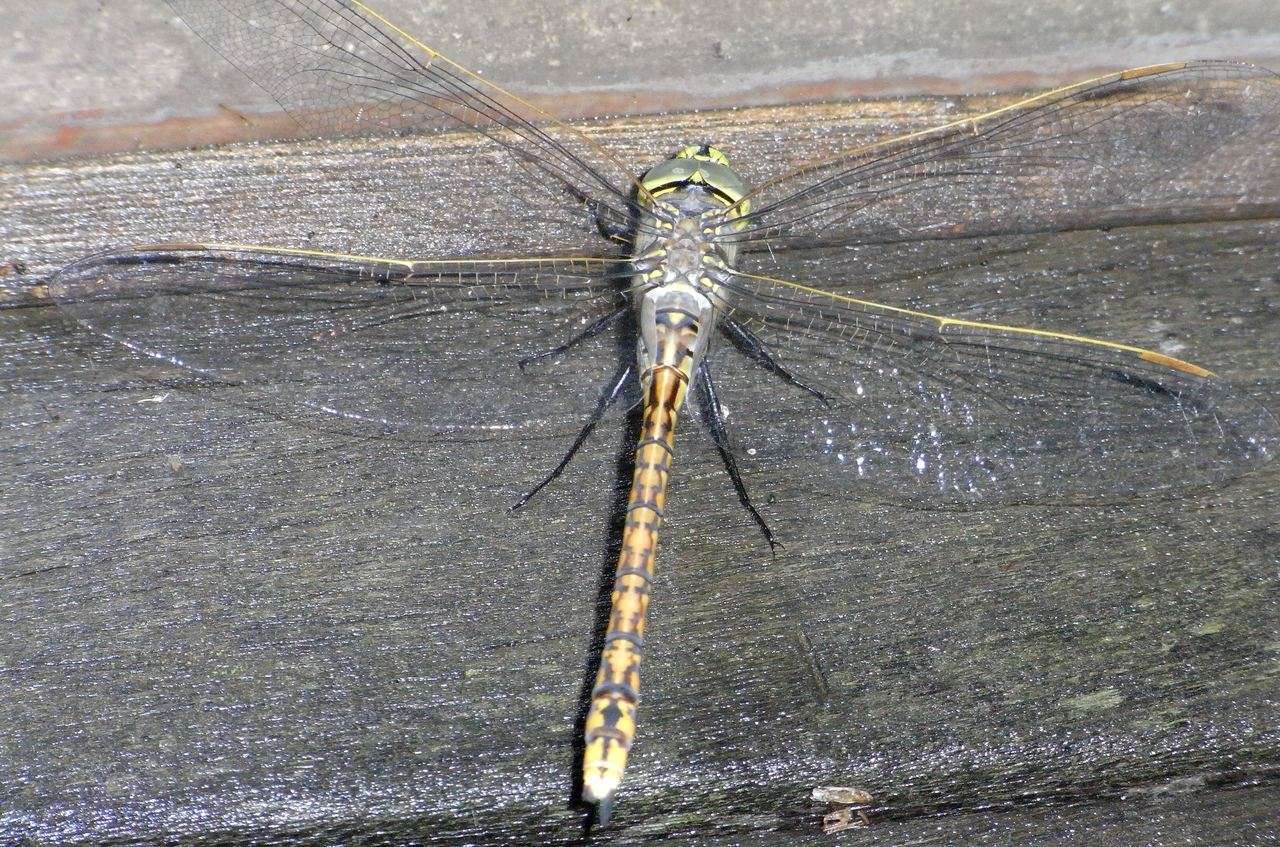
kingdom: Animalia
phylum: Arthropoda
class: Insecta
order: Odonata
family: Aeshnidae
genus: Anax
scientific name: Anax papuensis
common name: Australian emperor
